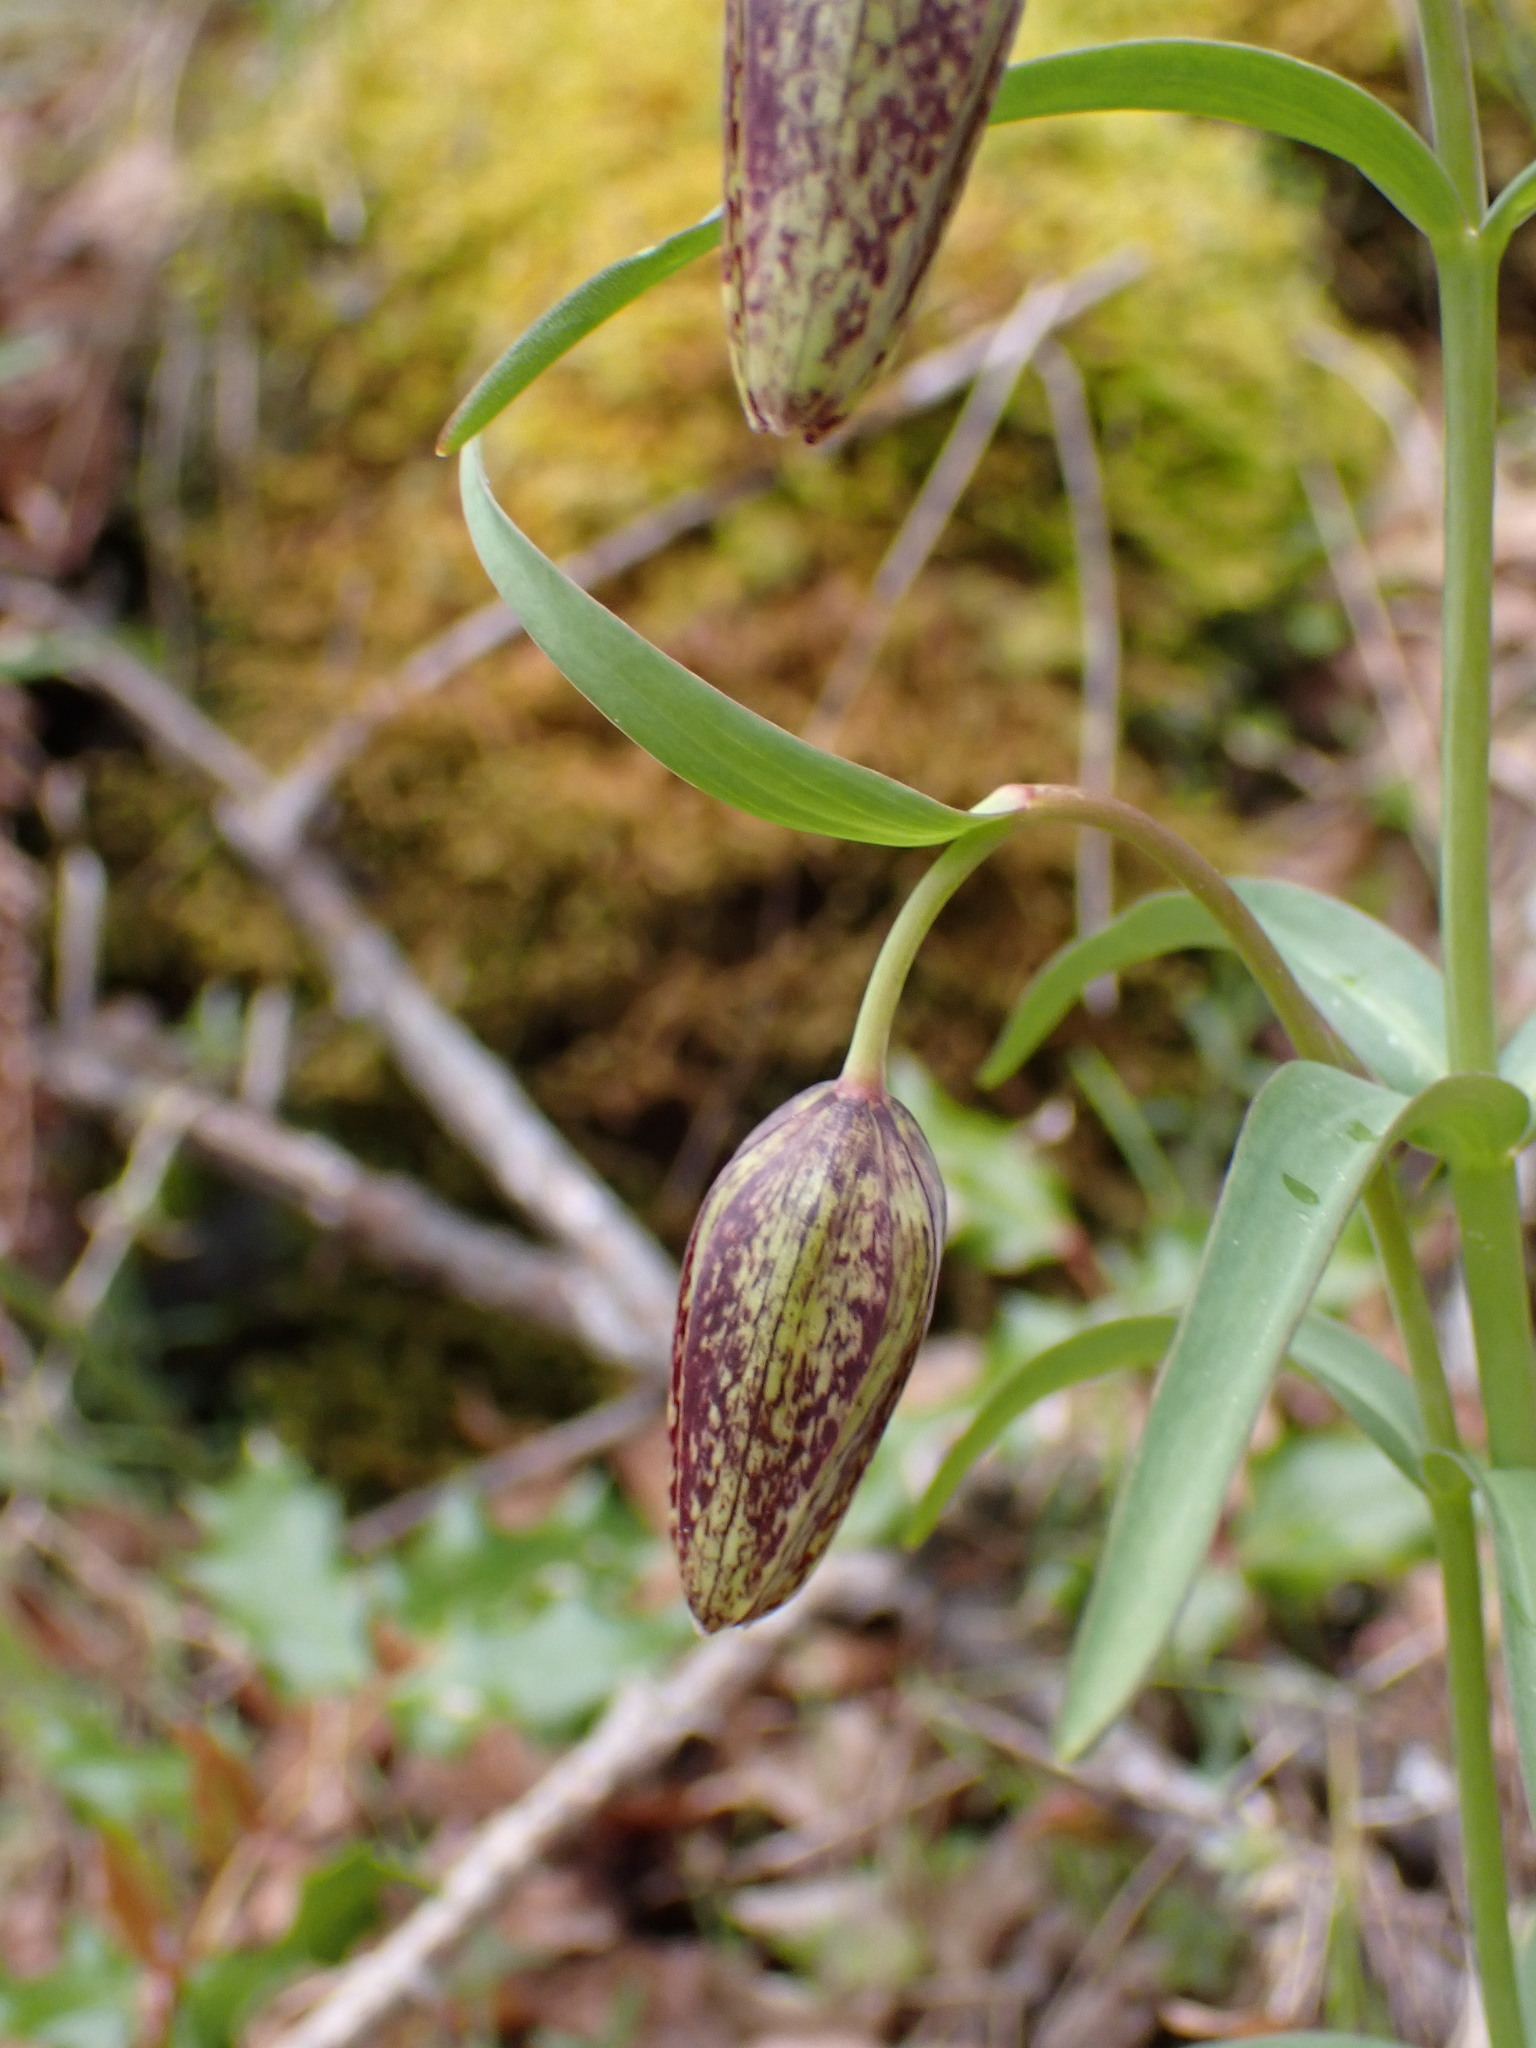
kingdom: Plantae
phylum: Tracheophyta
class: Liliopsida
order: Liliales
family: Liliaceae
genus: Fritillaria
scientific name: Fritillaria affinis
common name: Ojai fritillary
